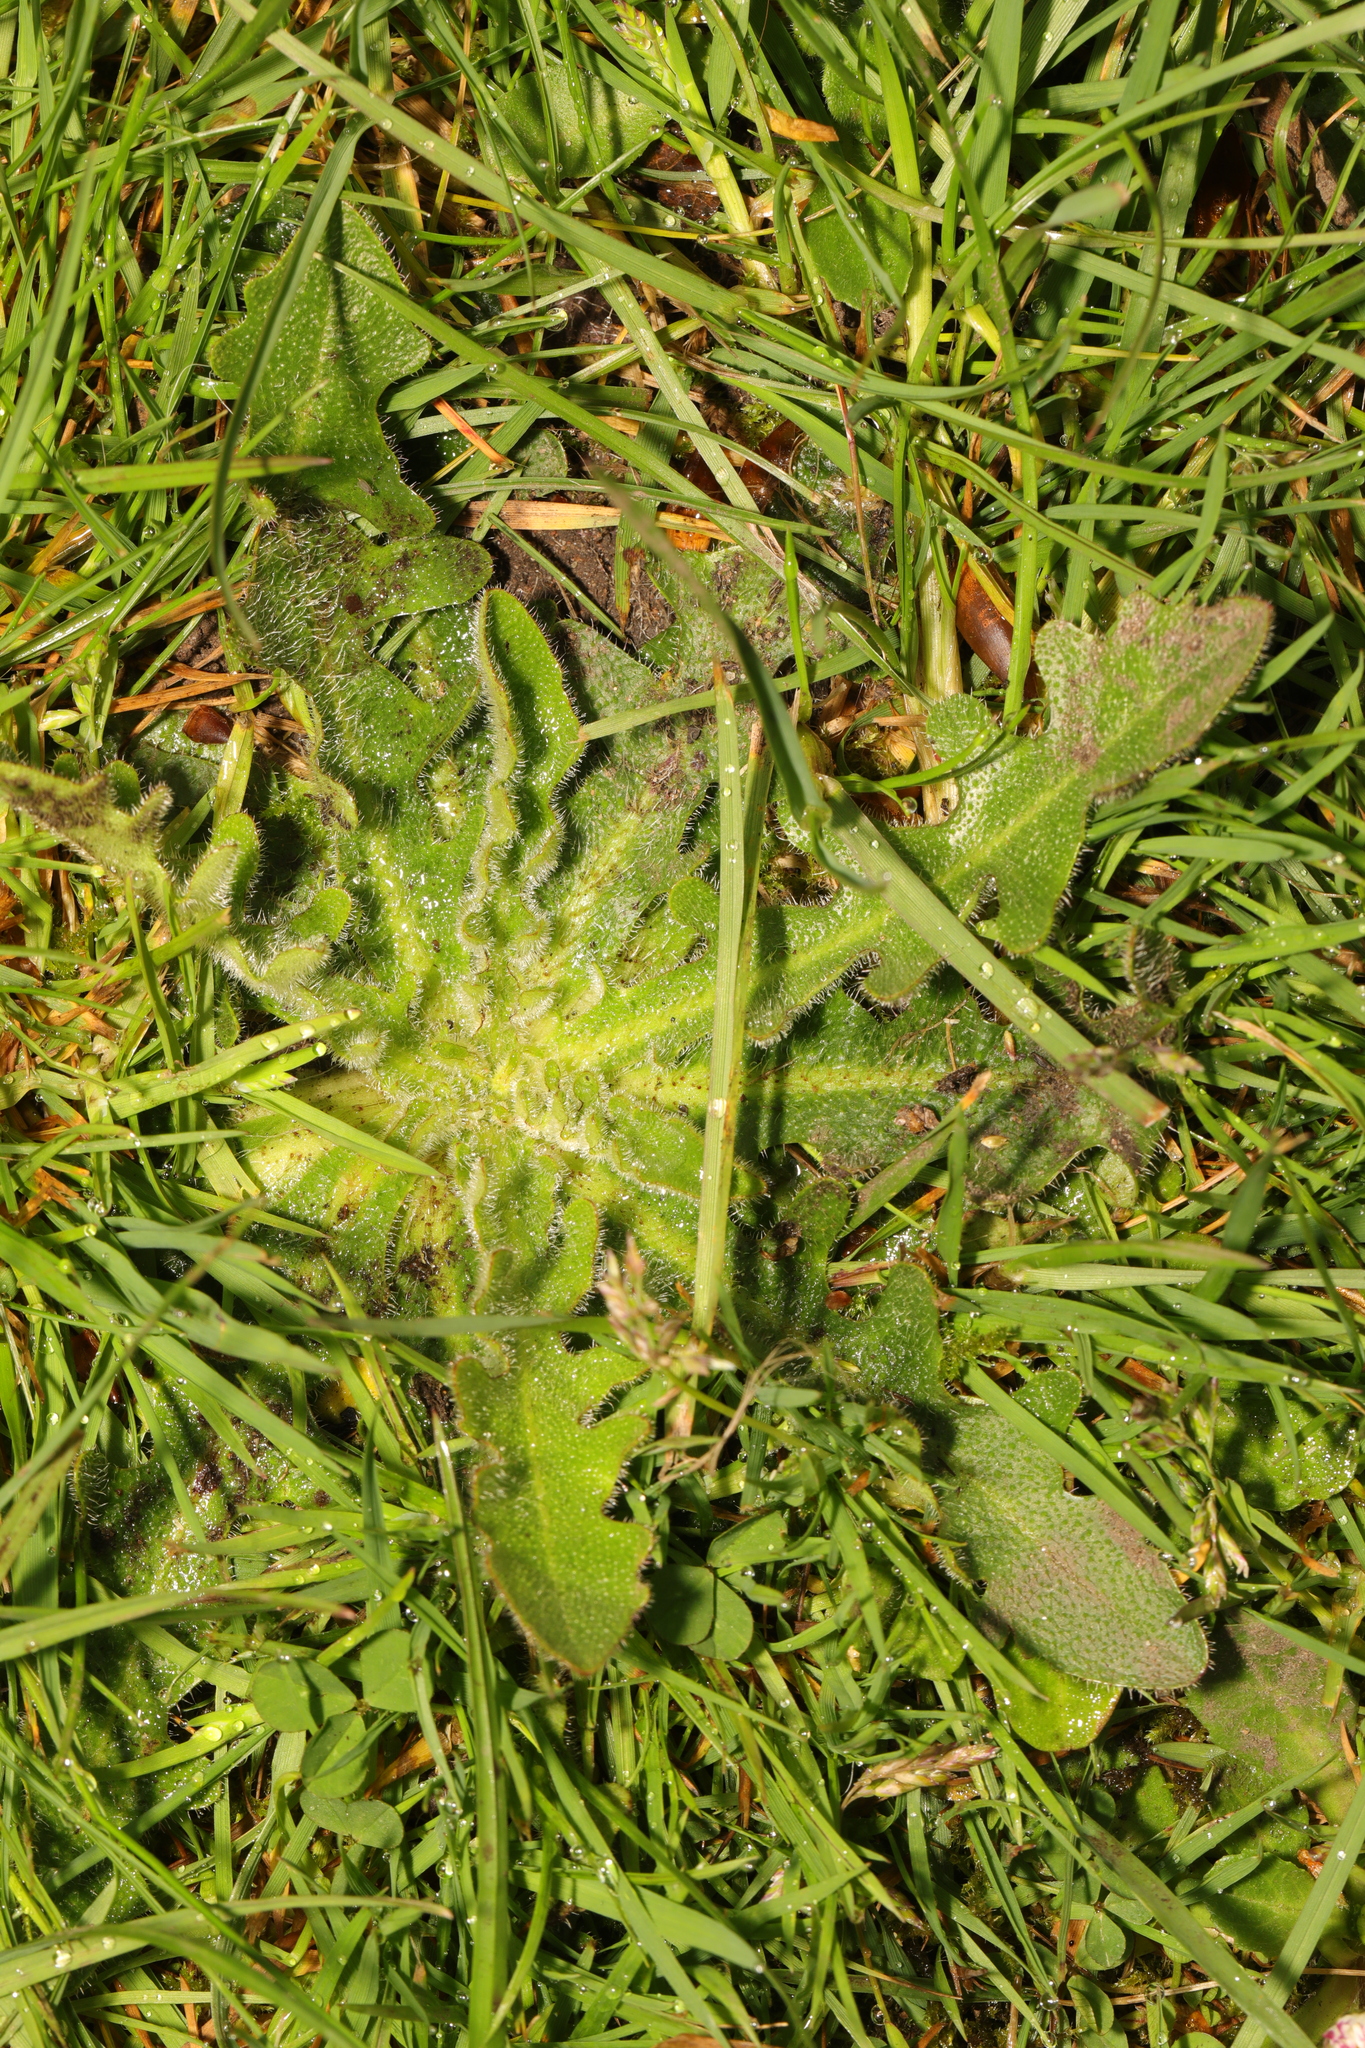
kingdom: Plantae
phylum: Tracheophyta
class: Magnoliopsida
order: Asterales
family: Asteraceae
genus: Hypochaeris
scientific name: Hypochaeris radicata
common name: Flatweed
